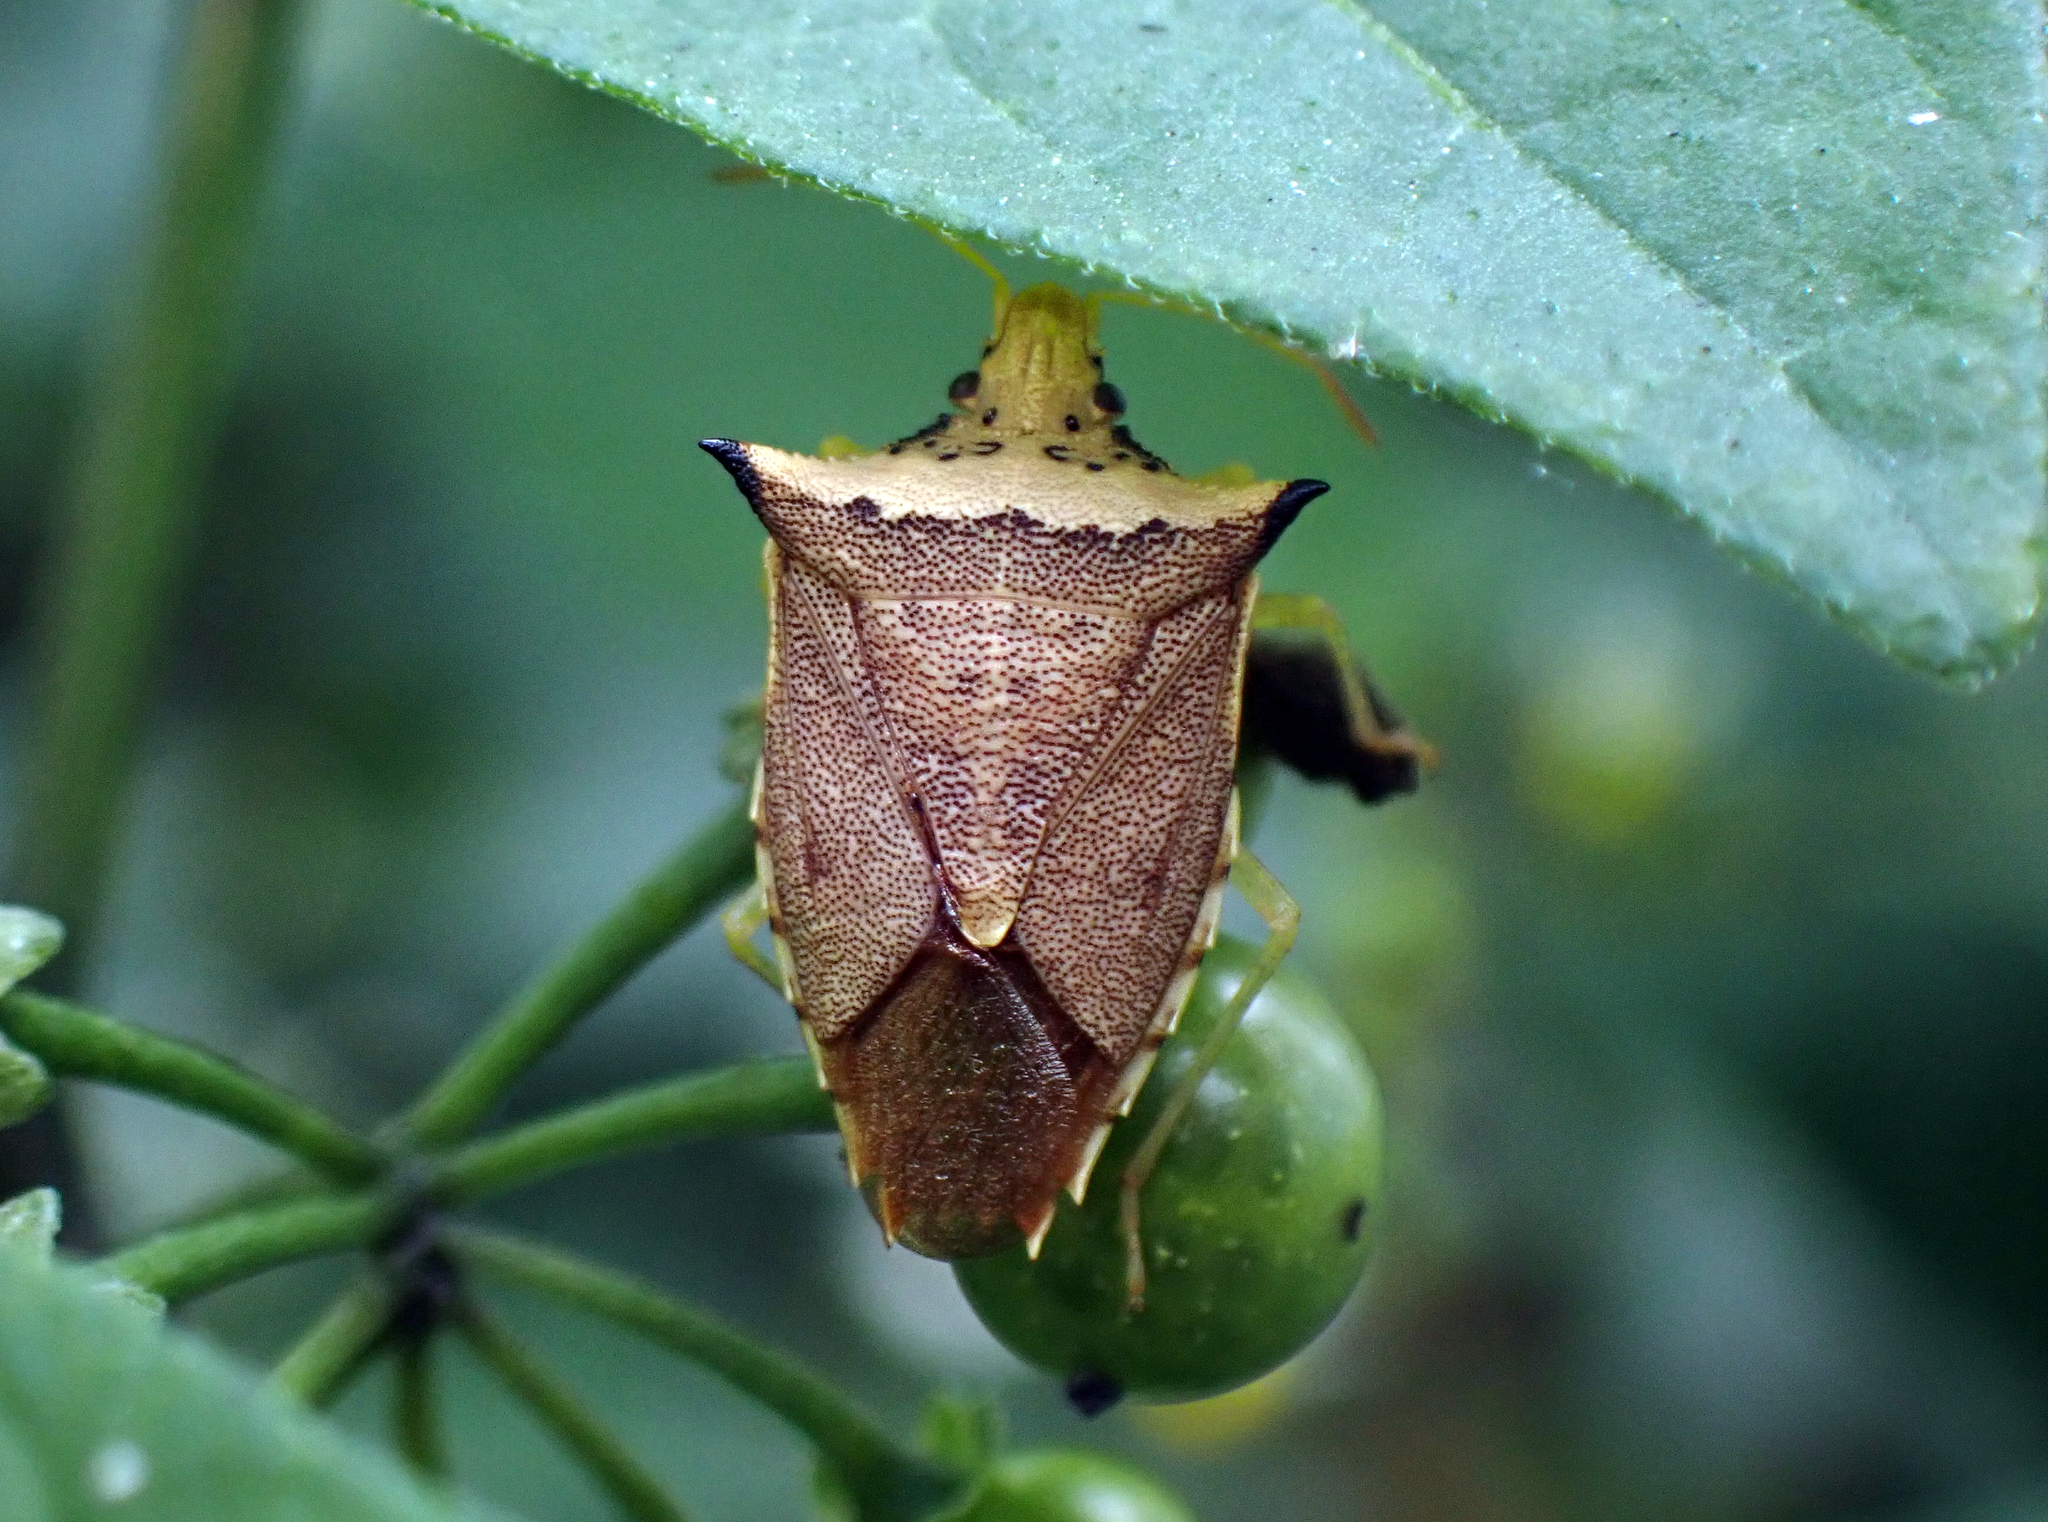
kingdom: Animalia
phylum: Arthropoda
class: Insecta
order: Hemiptera
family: Pentatomidae
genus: Euschistus
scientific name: Euschistus acuminatus
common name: Stink bug
